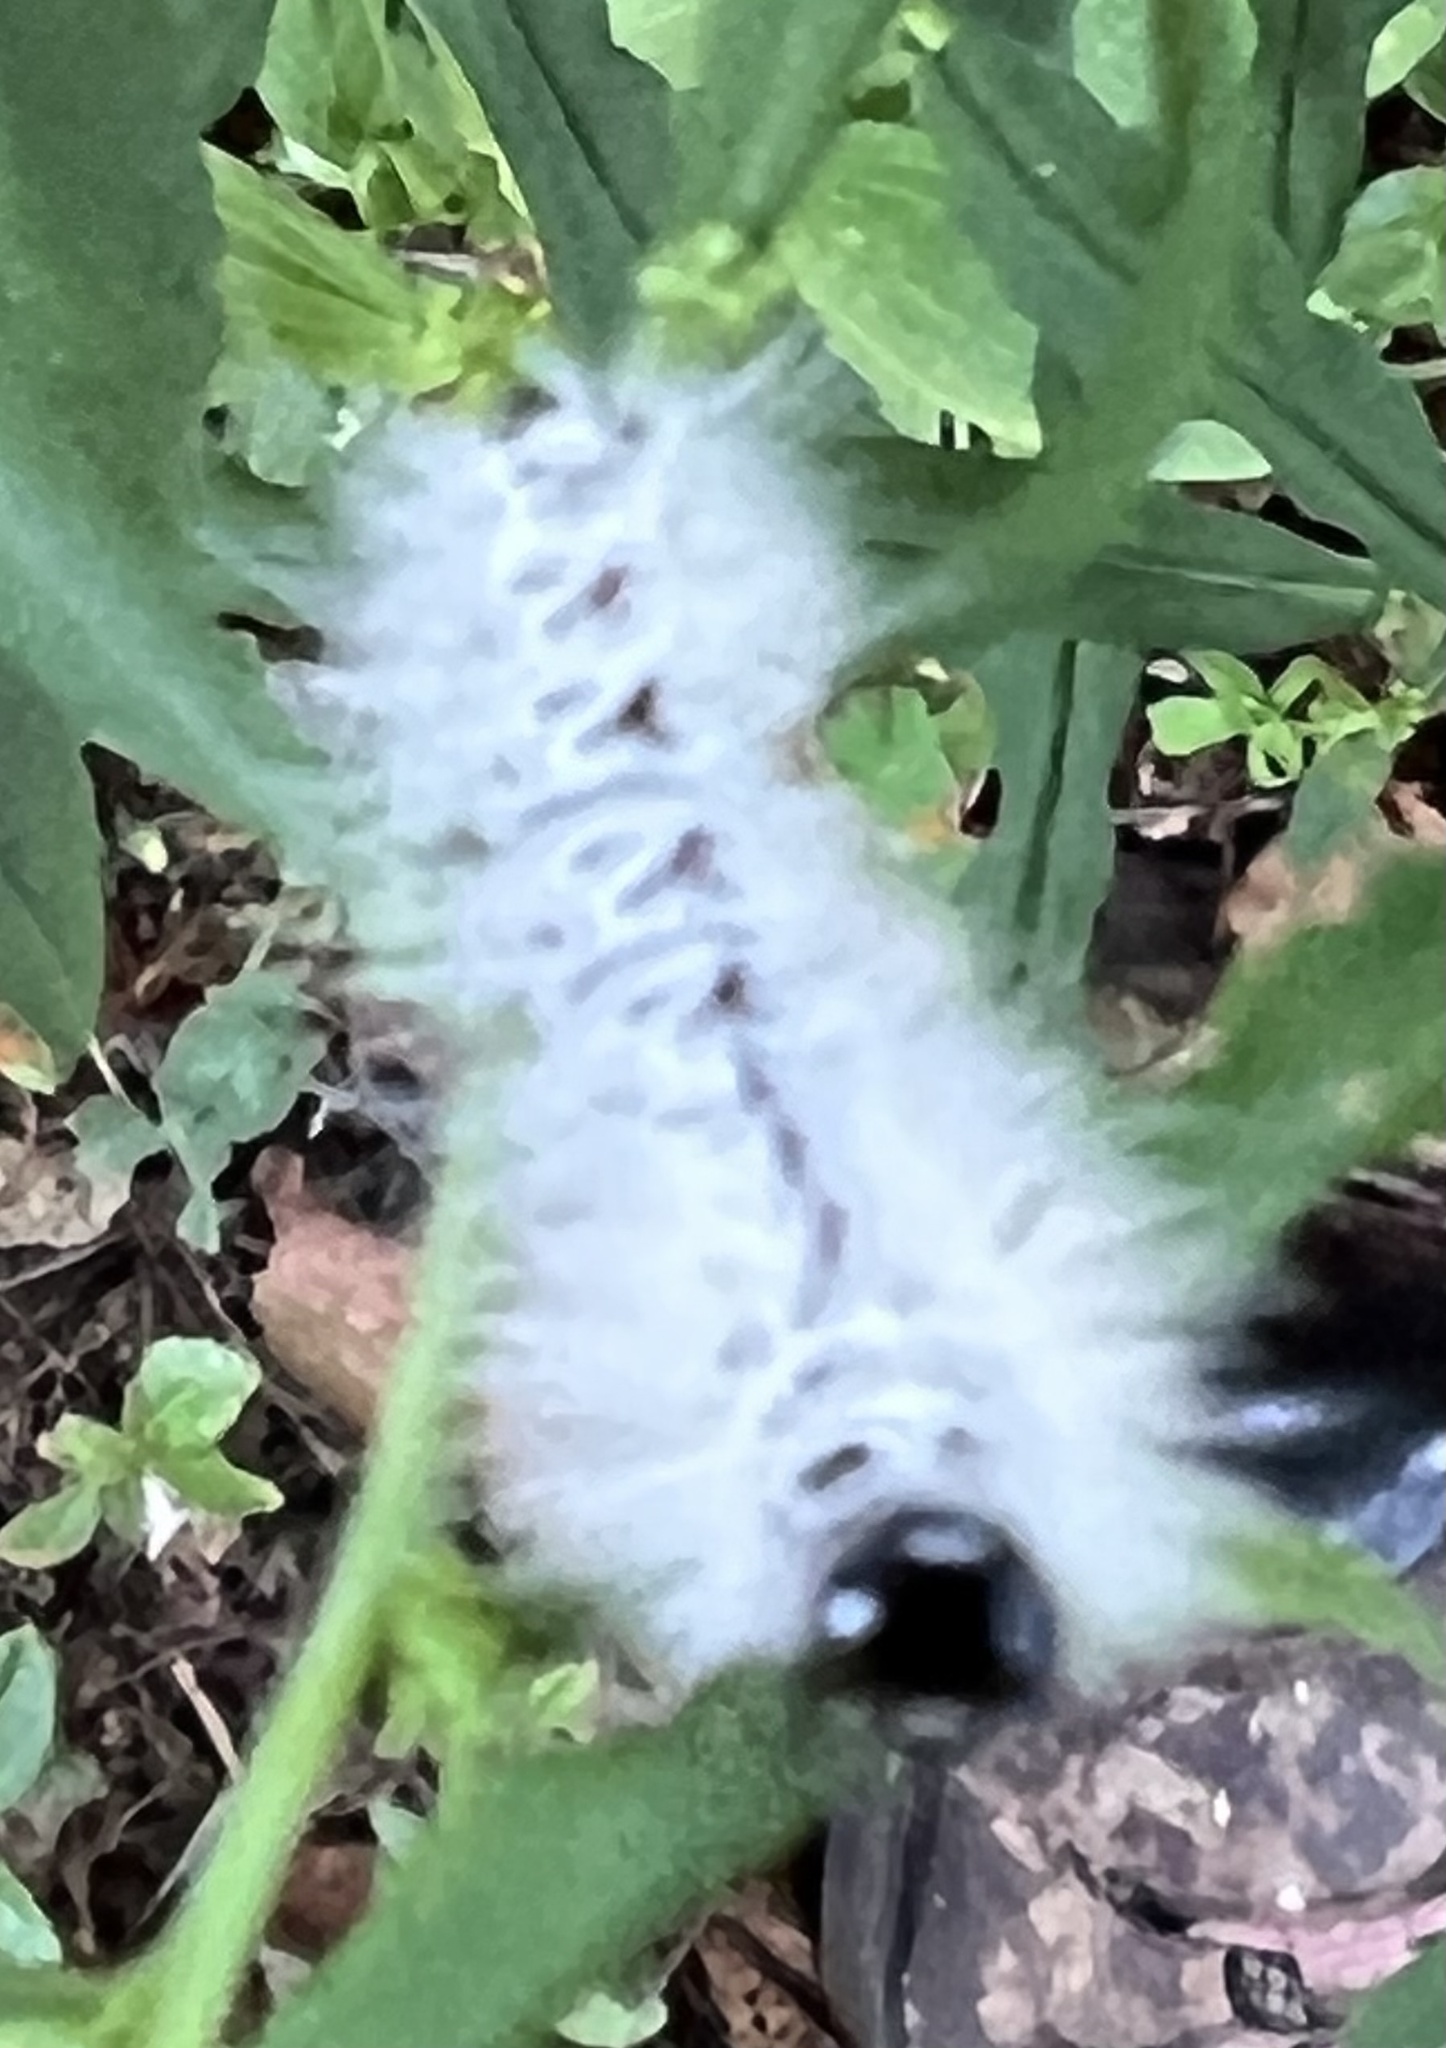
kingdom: Animalia
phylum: Arthropoda
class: Insecta
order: Lepidoptera
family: Erebidae
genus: Lophocampa
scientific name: Lophocampa caryae
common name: Hickory tussock moth
